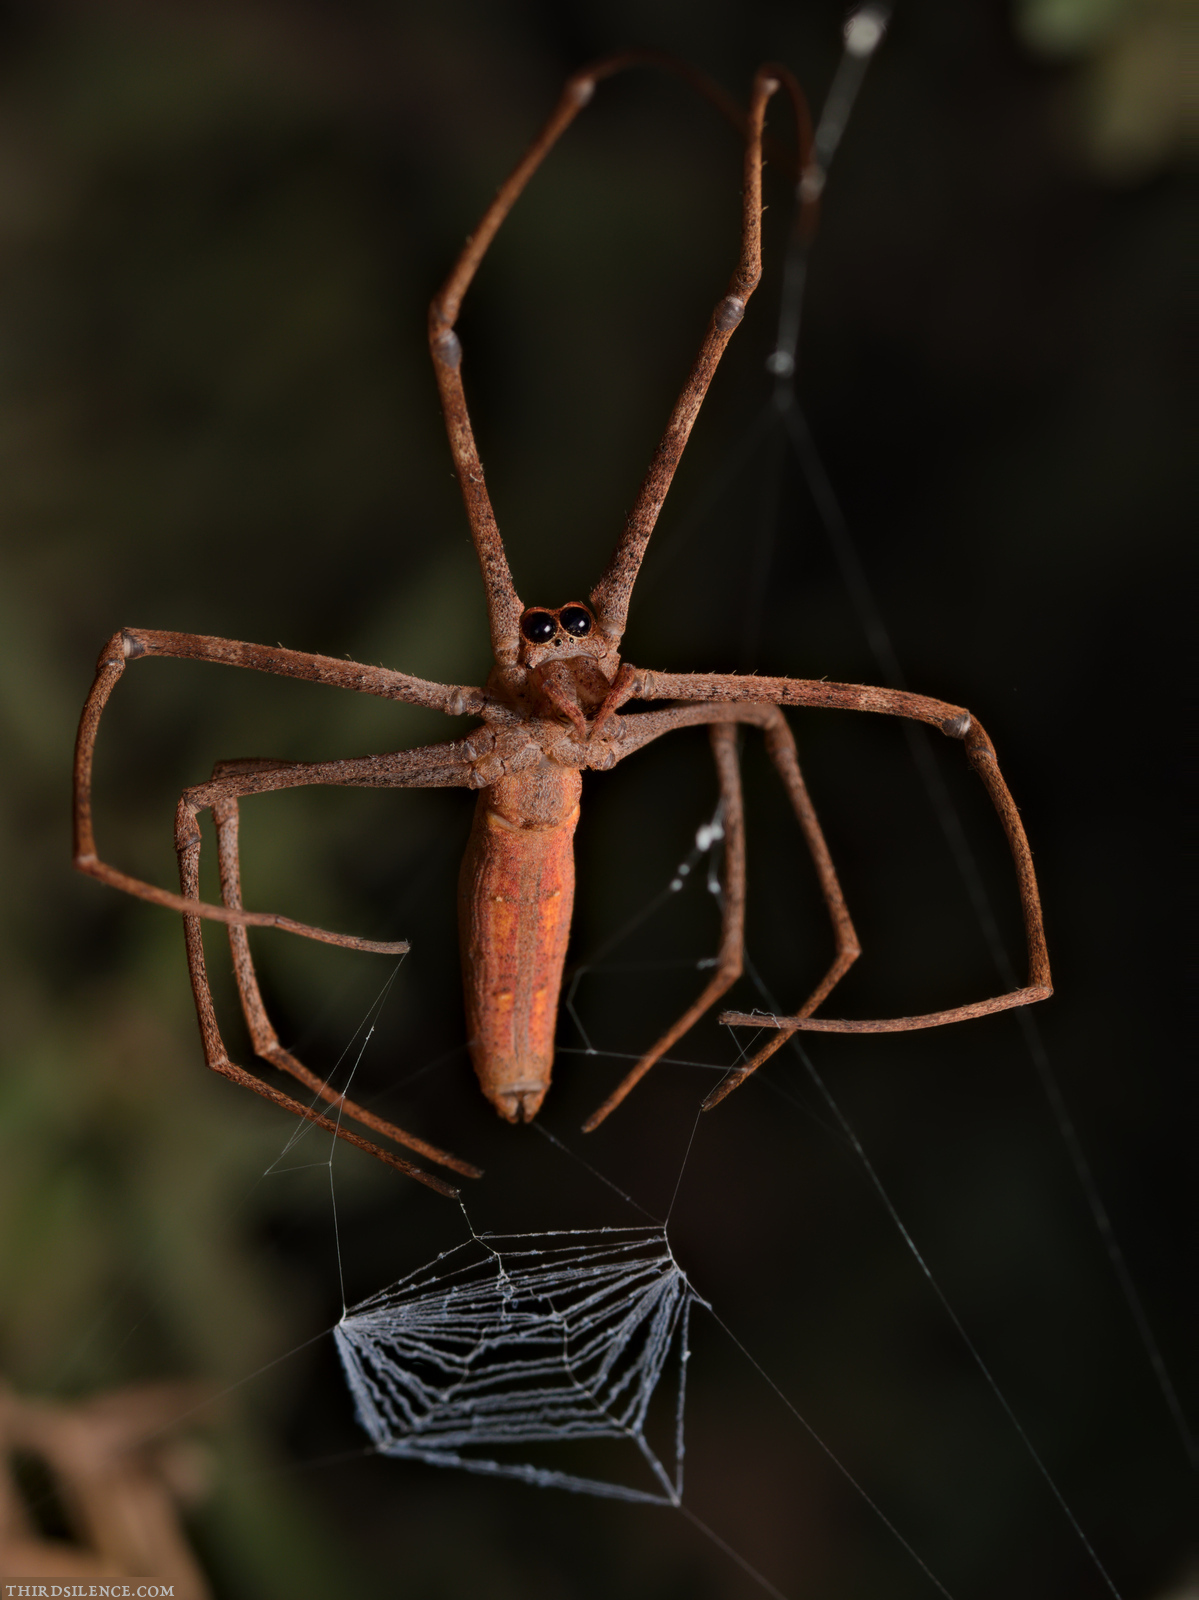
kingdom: Animalia
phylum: Arthropoda
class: Arachnida
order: Araneae
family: Deinopidae
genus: Deinopis
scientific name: Deinopis subrufa
